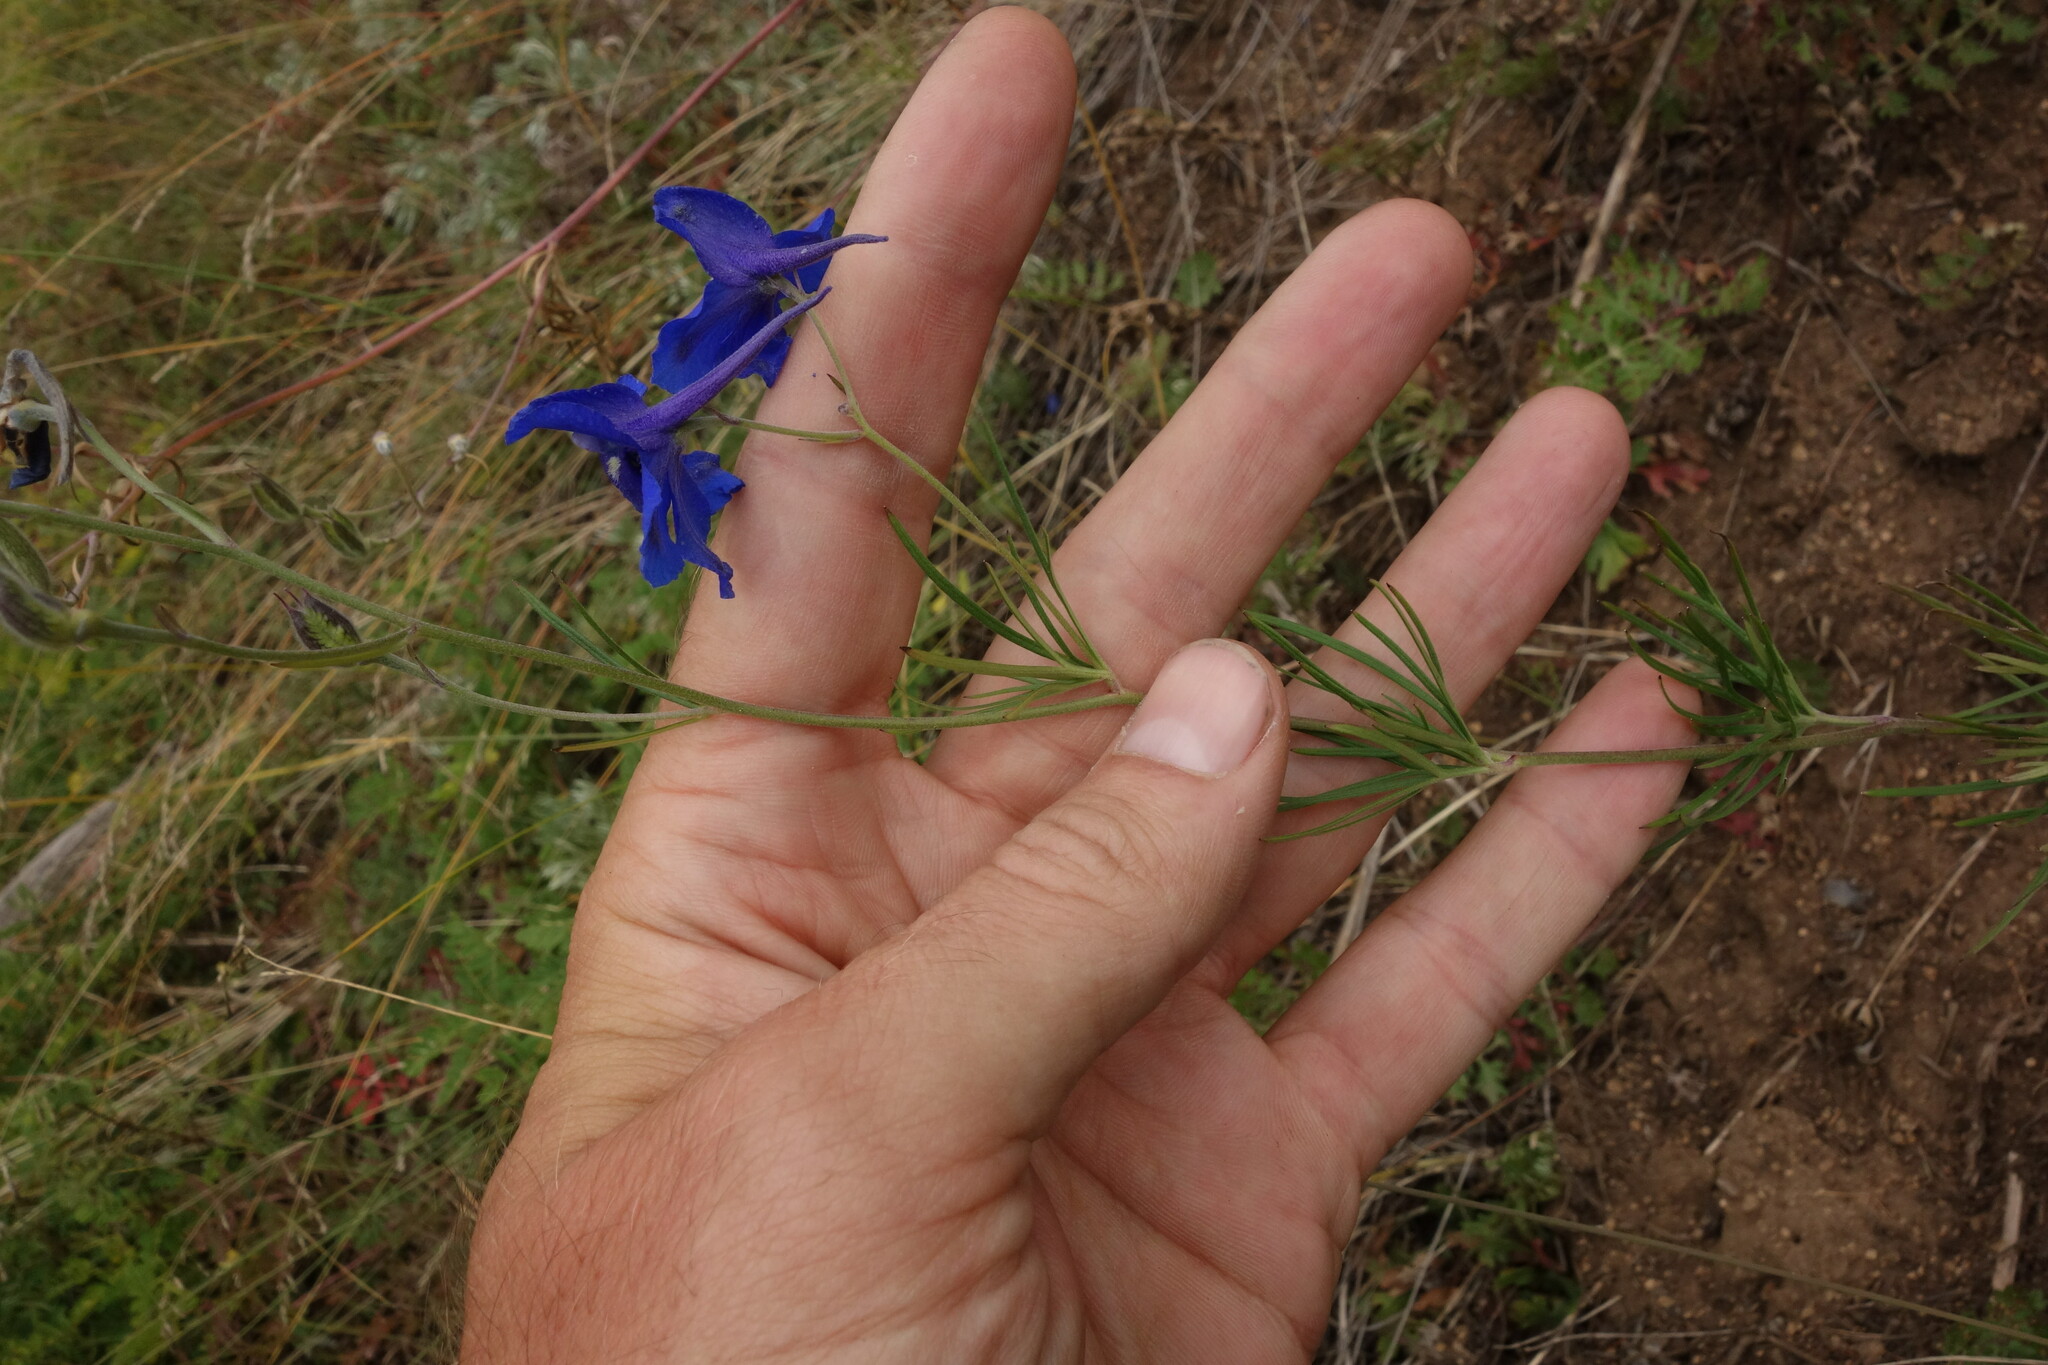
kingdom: Plantae
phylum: Tracheophyta
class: Magnoliopsida
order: Ranunculales
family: Ranunculaceae
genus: Delphinium
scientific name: Delphinium grandiflorum
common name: Siberian larkspur
